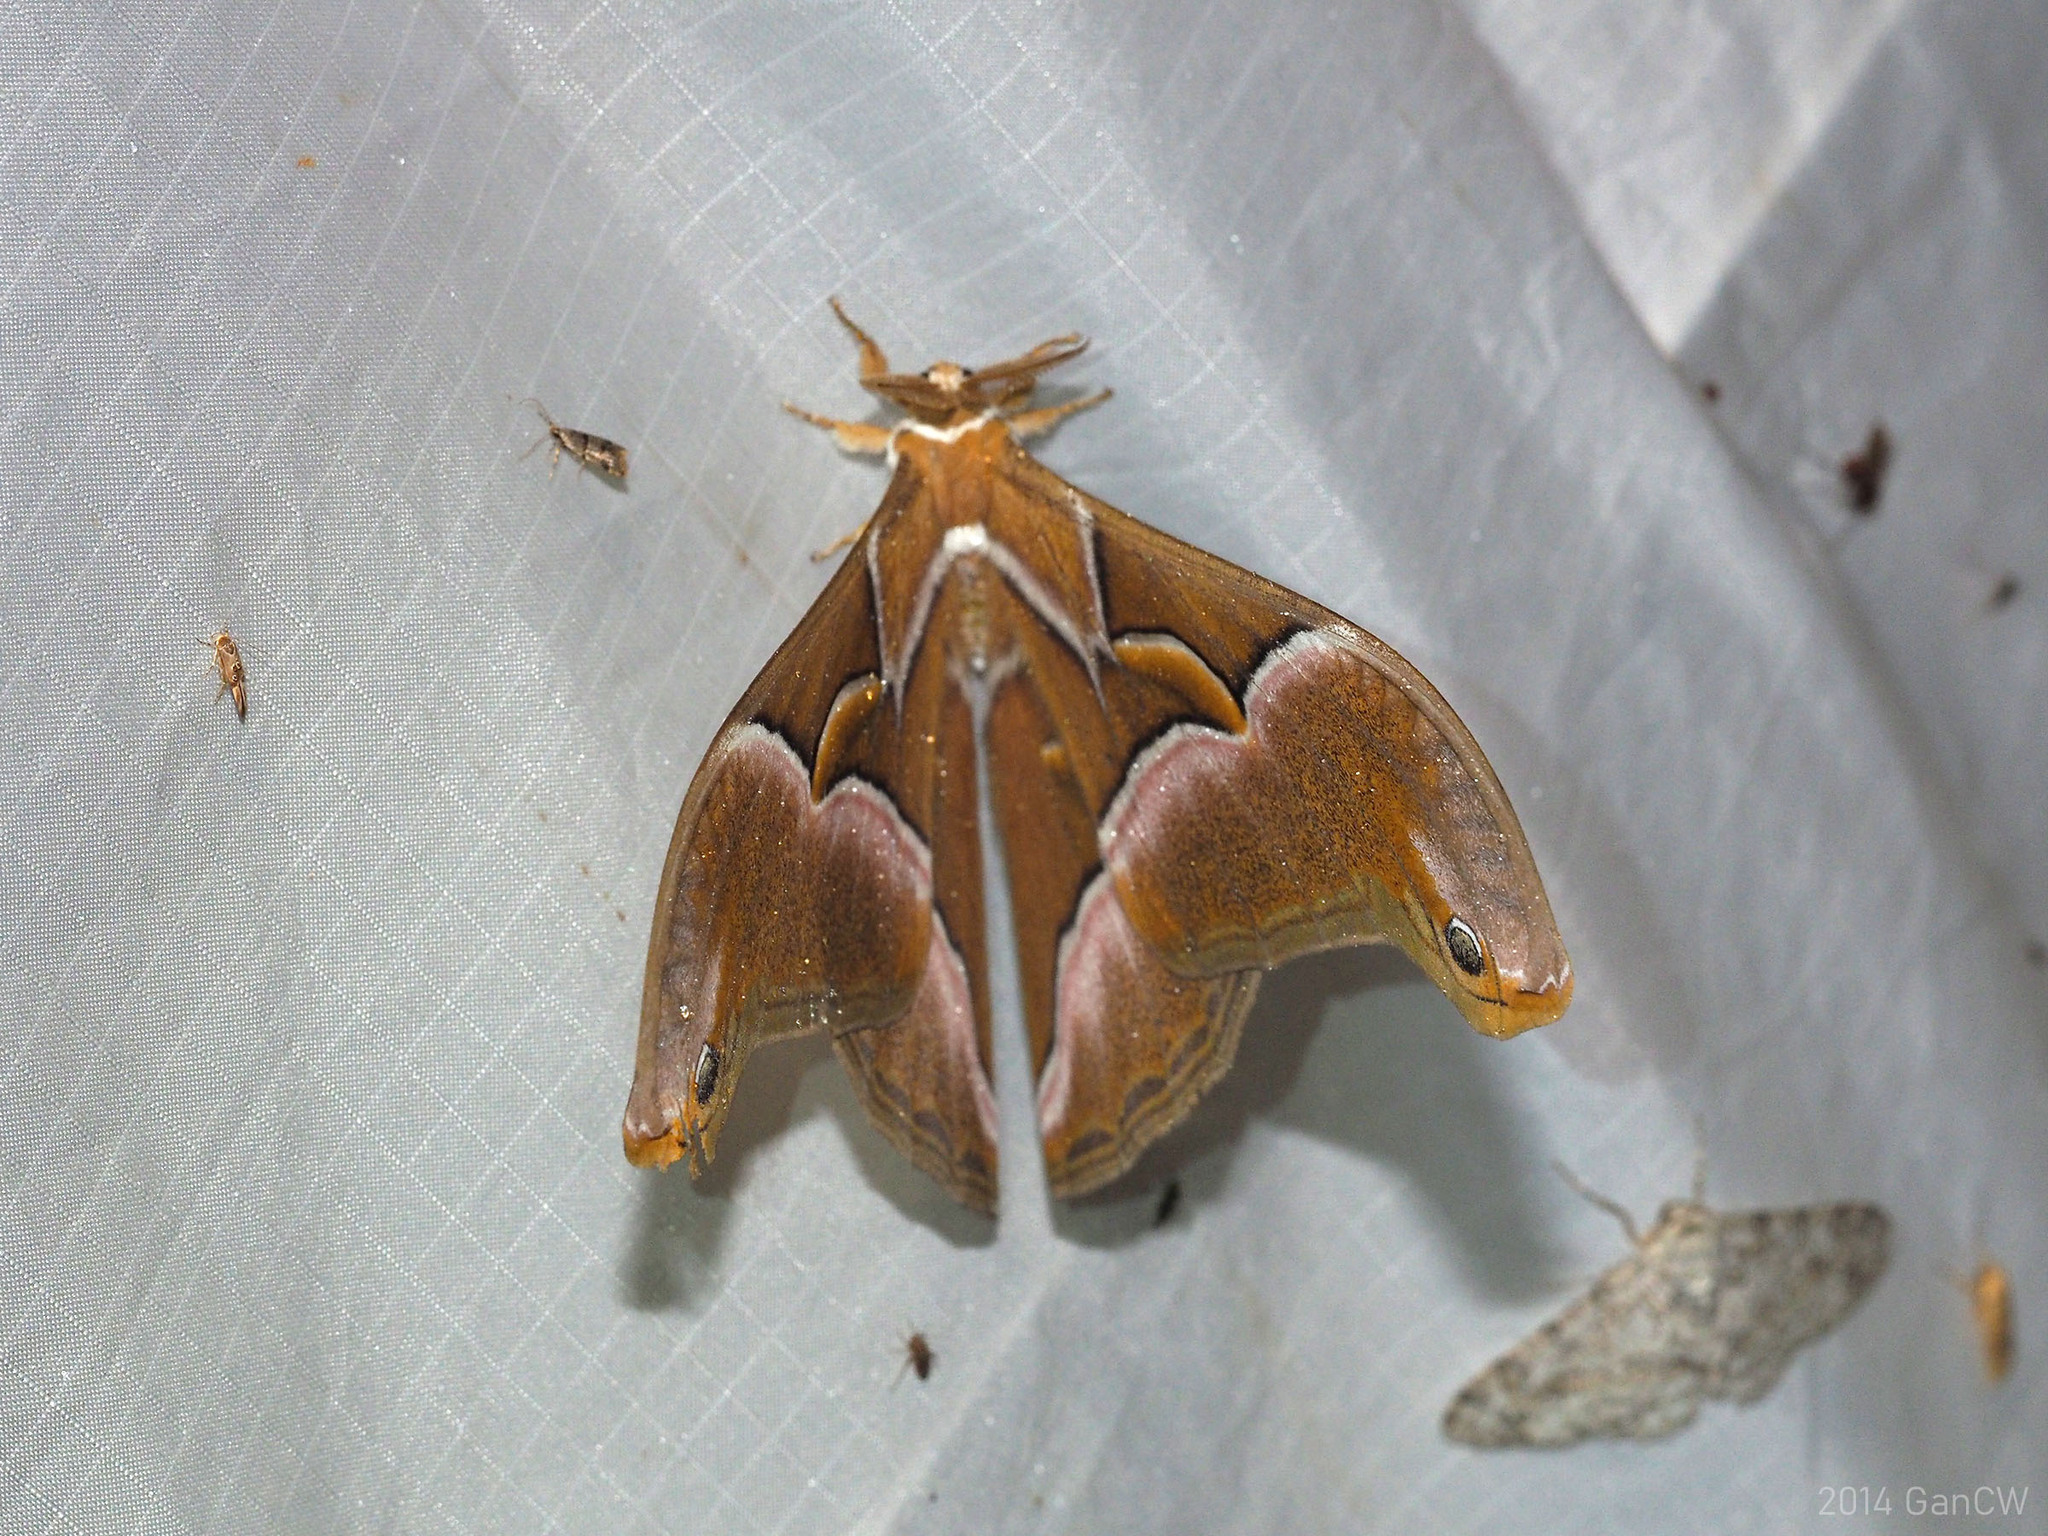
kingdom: Animalia
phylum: Arthropoda
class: Insecta
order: Lepidoptera
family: Saturniidae
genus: Samia
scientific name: Samia kohlli
